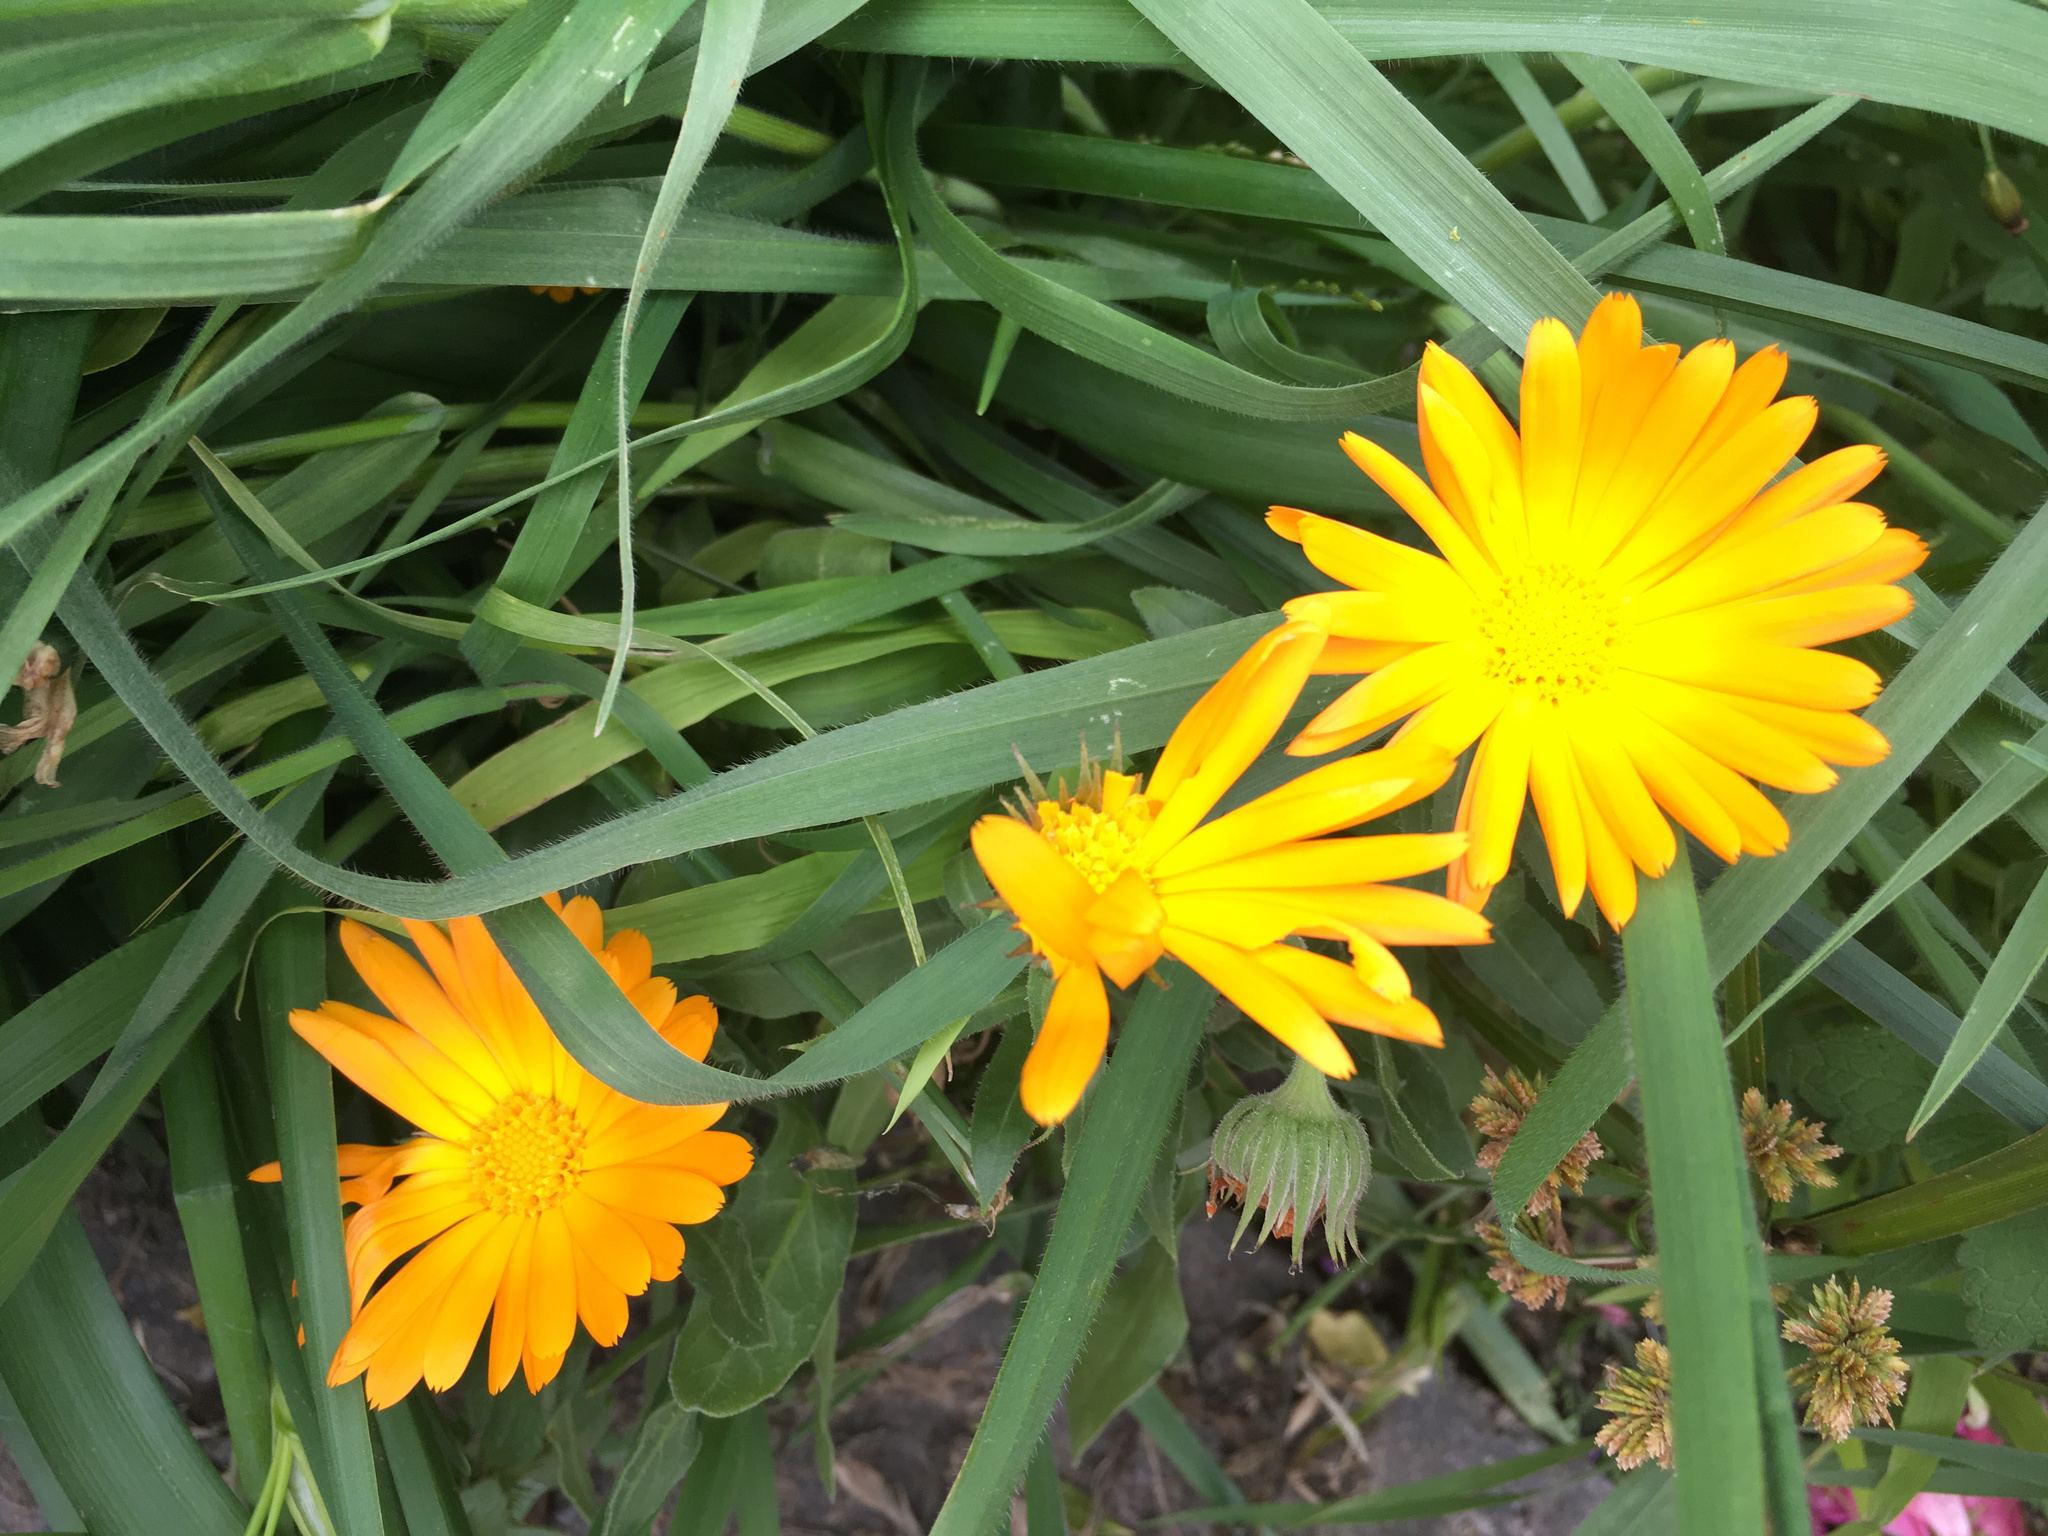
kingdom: Plantae
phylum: Tracheophyta
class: Magnoliopsida
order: Asterales
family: Asteraceae
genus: Calendula
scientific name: Calendula officinalis
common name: Pot marigold
